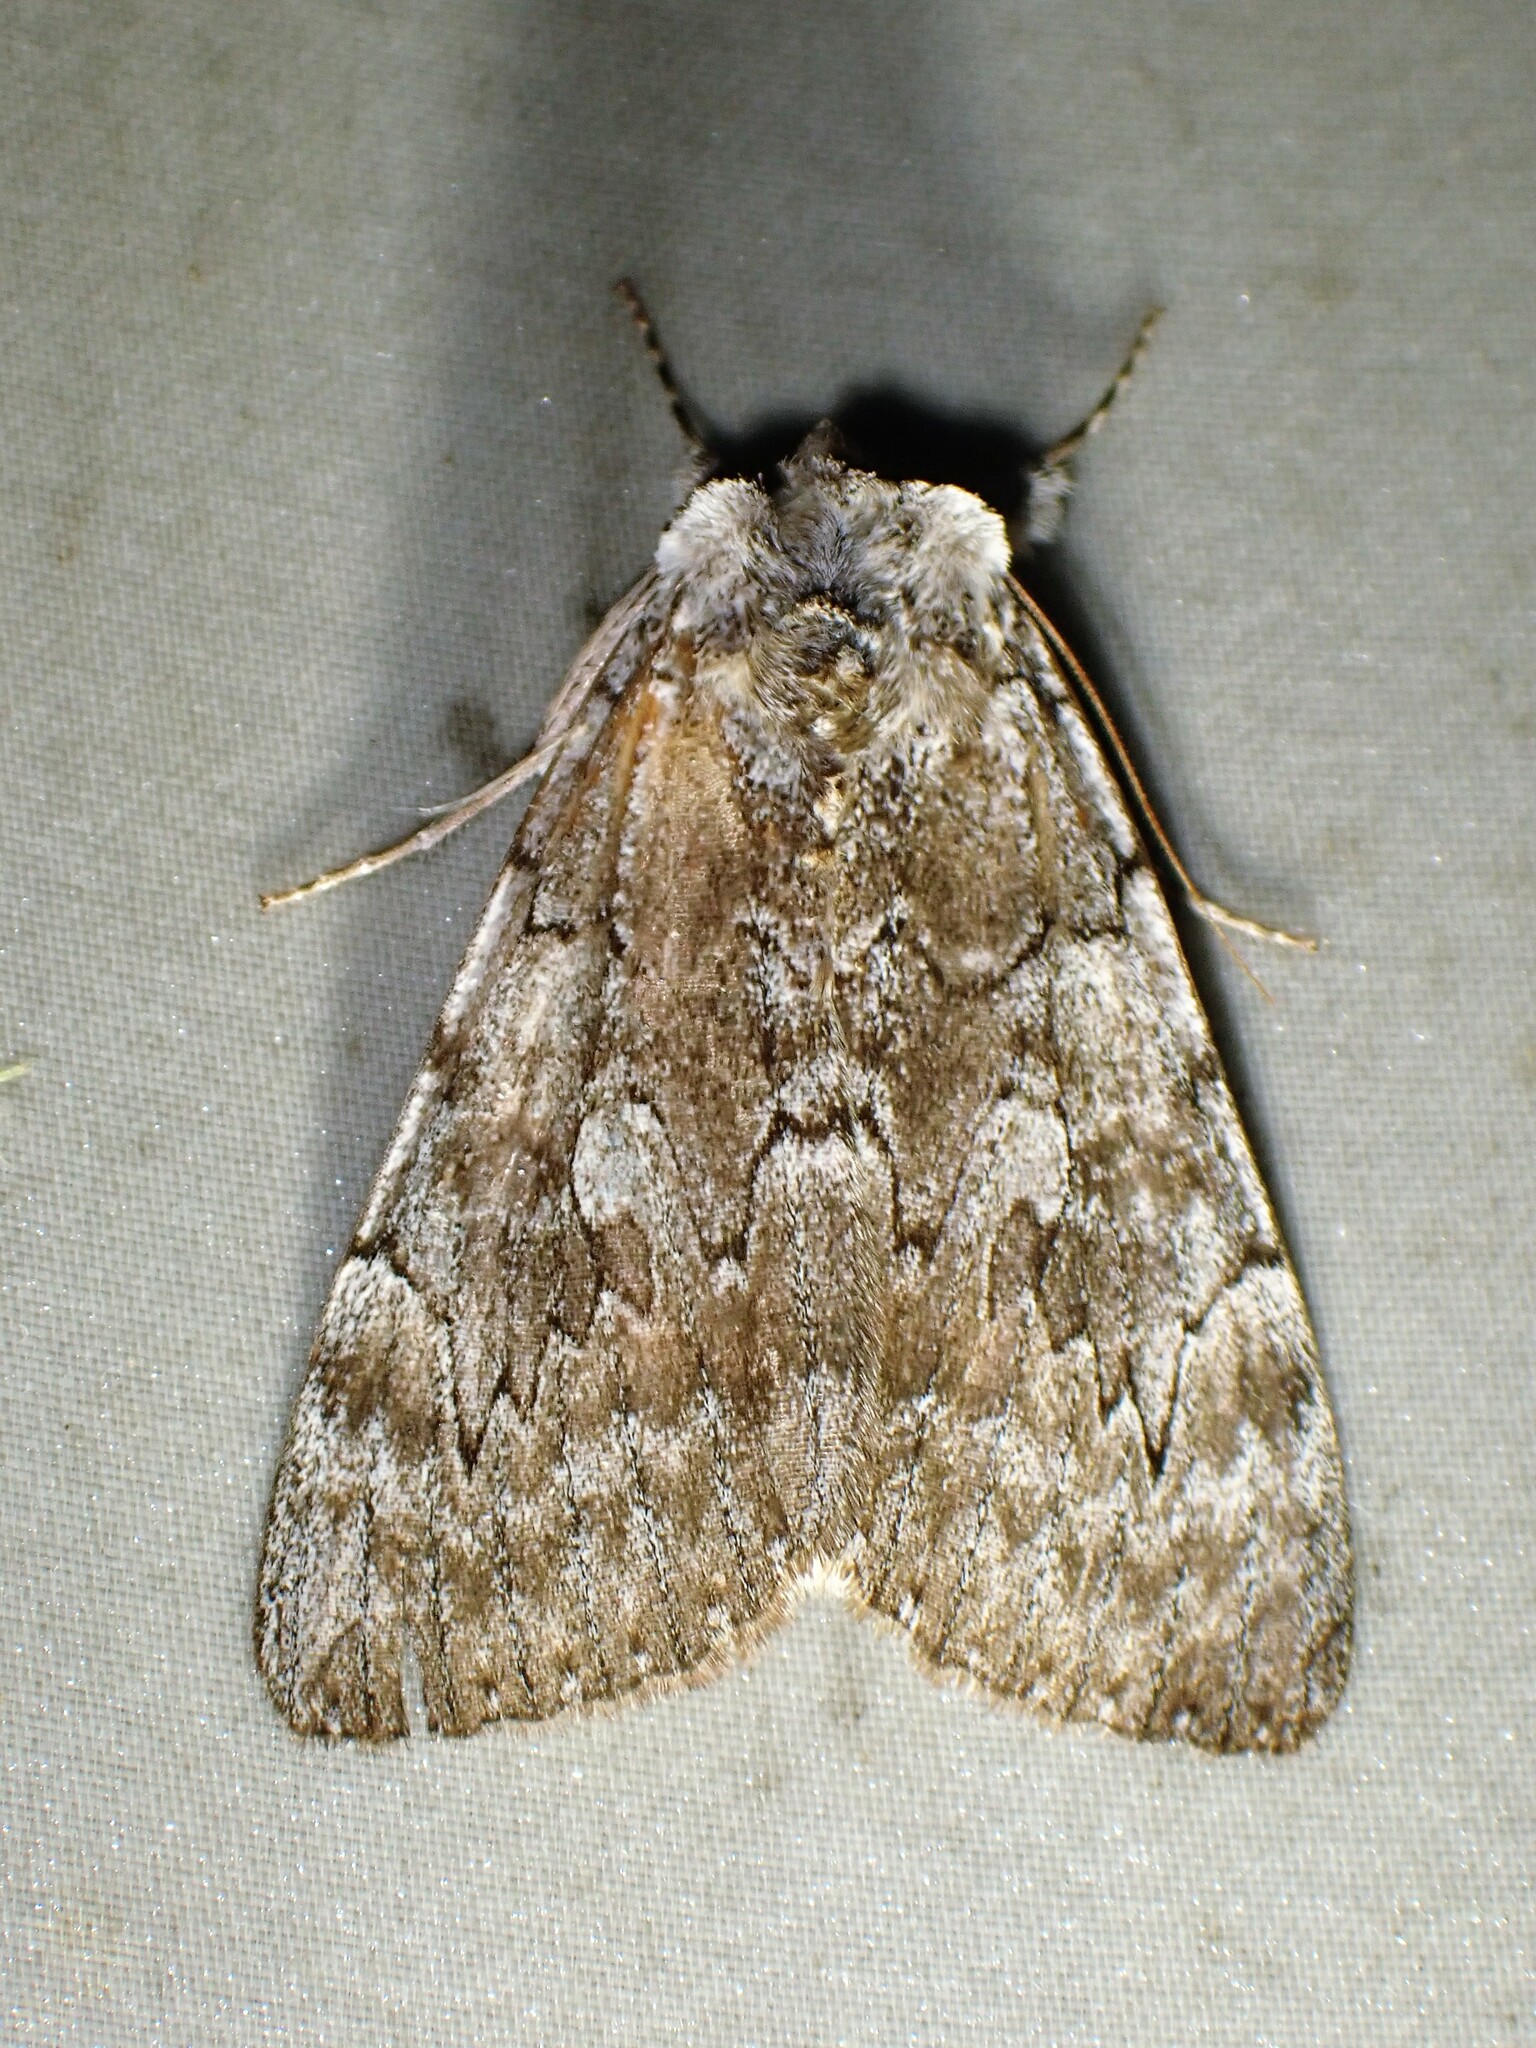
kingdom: Animalia
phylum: Arthropoda
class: Insecta
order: Lepidoptera
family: Erebidae
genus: Catocala
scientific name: Catocala concumbens
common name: Pink underwing
